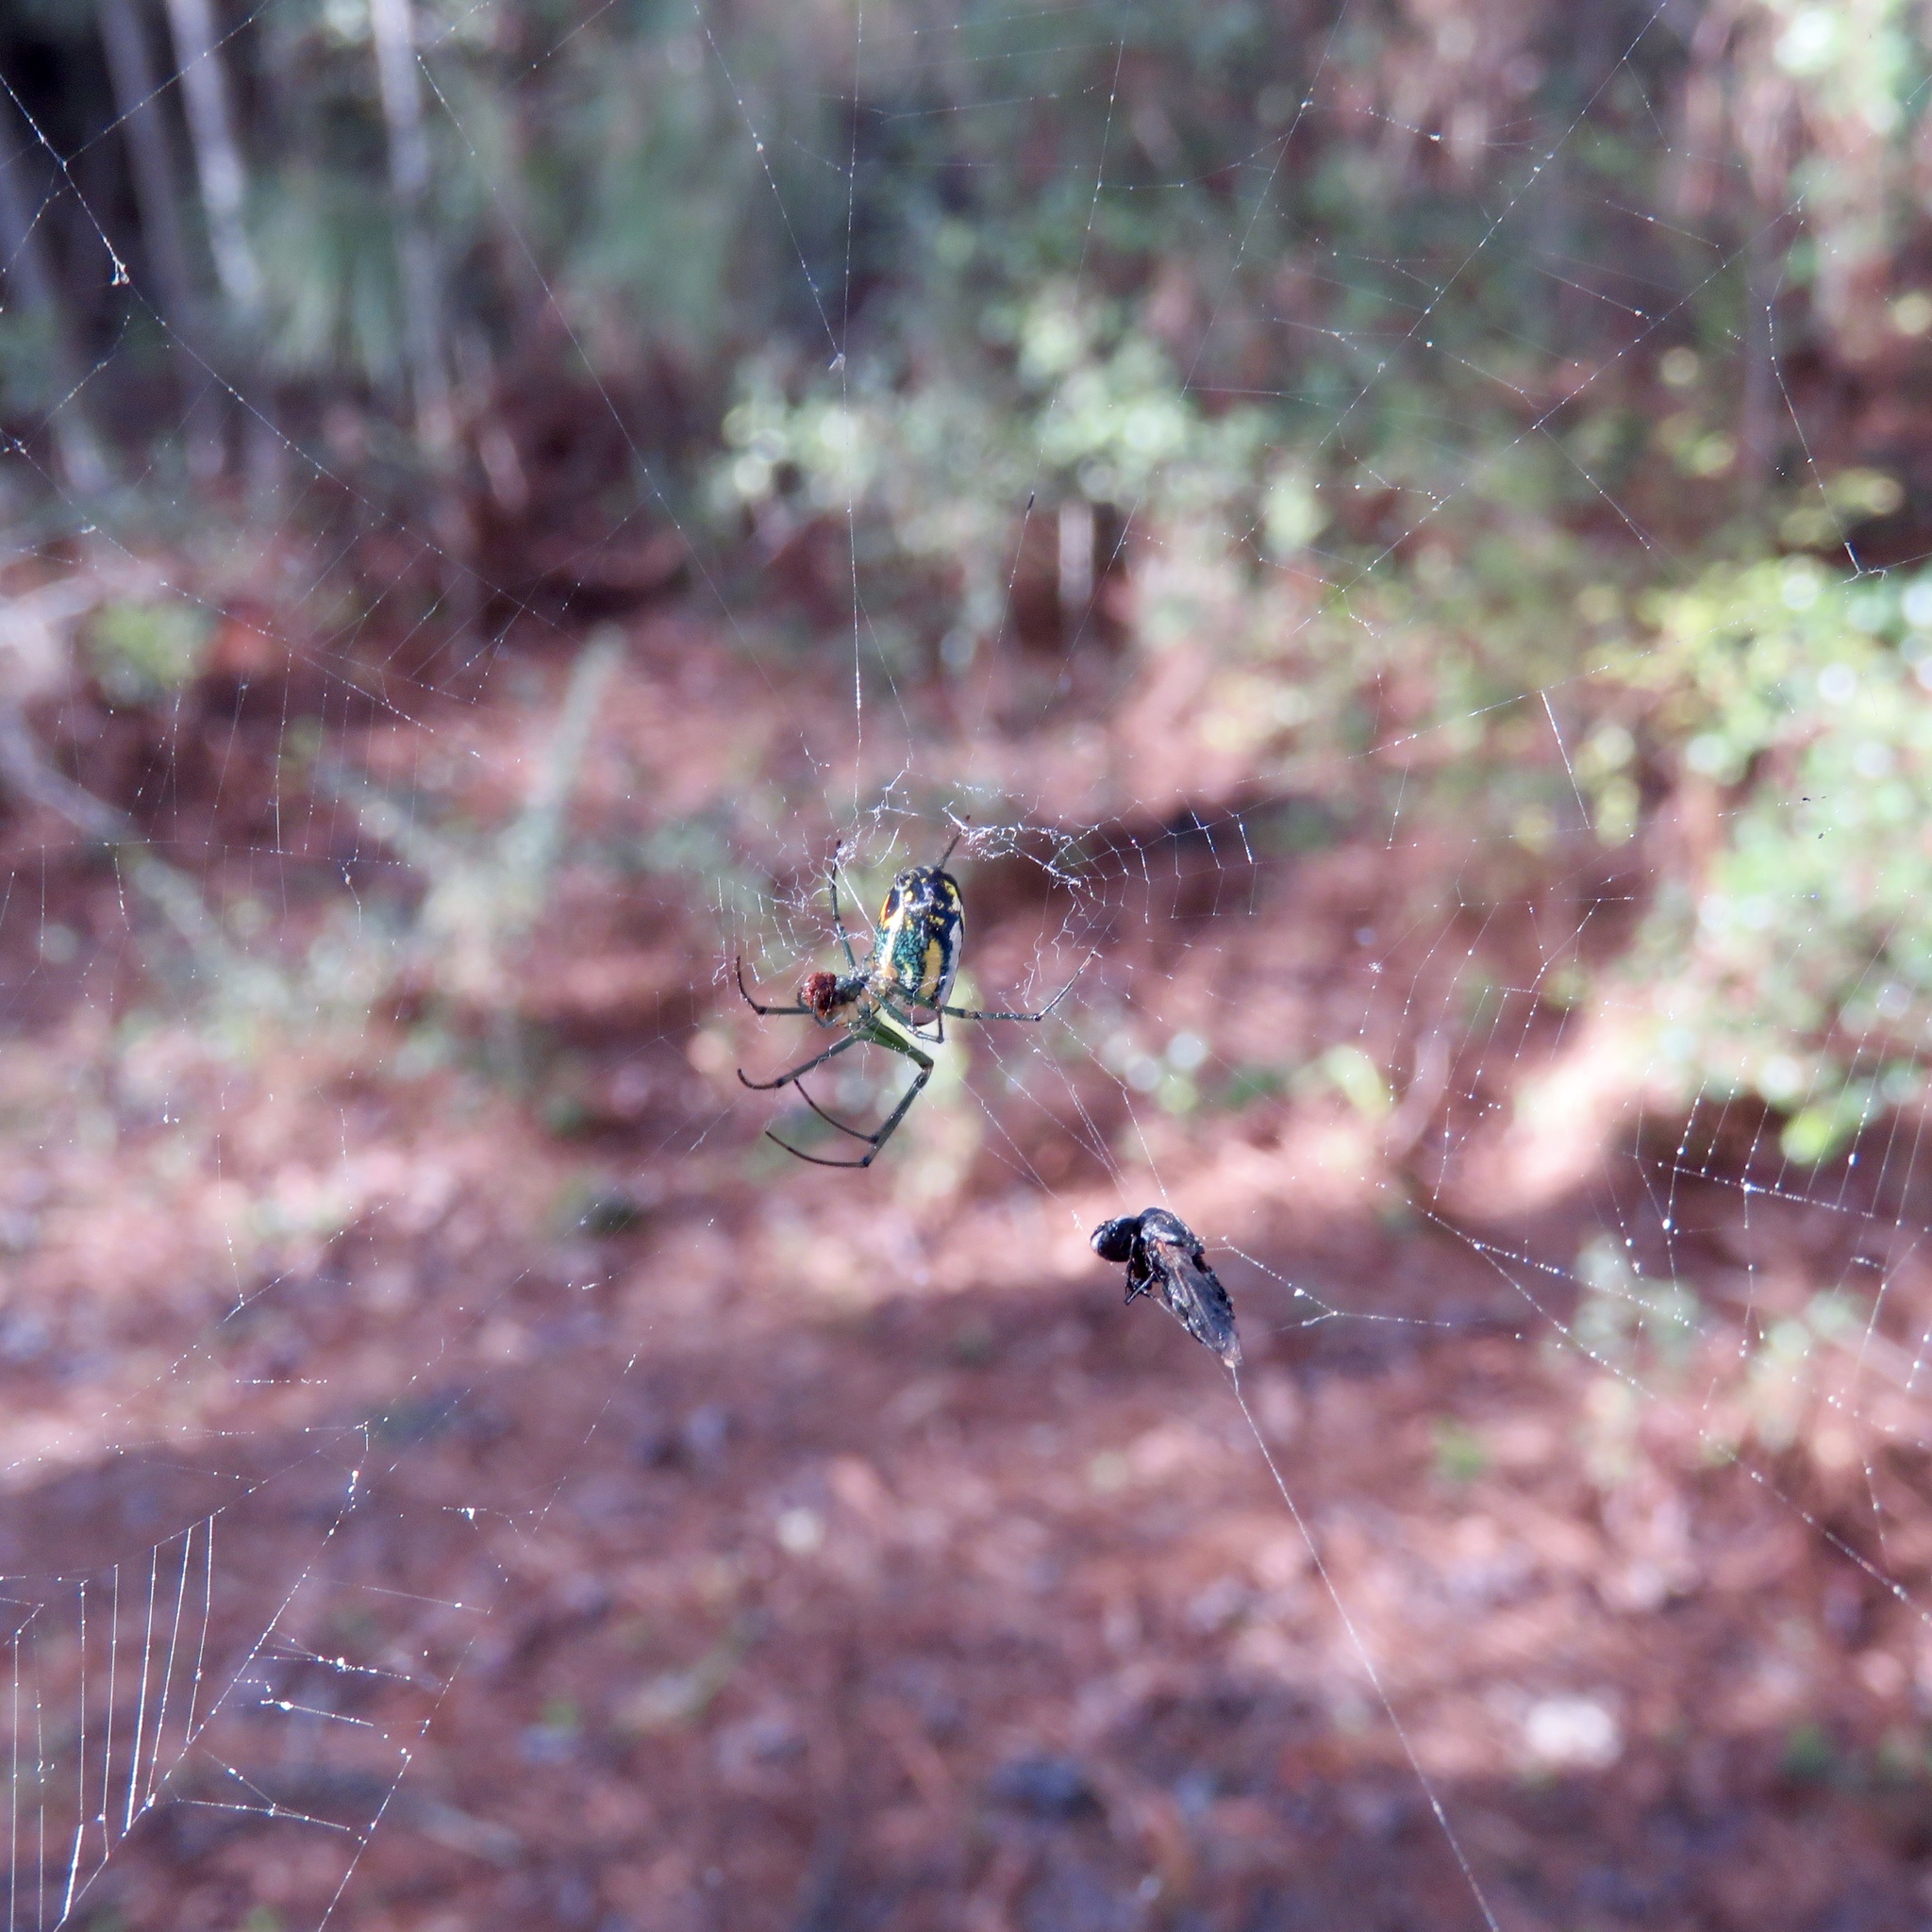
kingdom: Animalia
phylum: Arthropoda
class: Arachnida
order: Araneae
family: Tetragnathidae
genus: Leucauge
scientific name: Leucauge venusta
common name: Longjawed orb weavers
